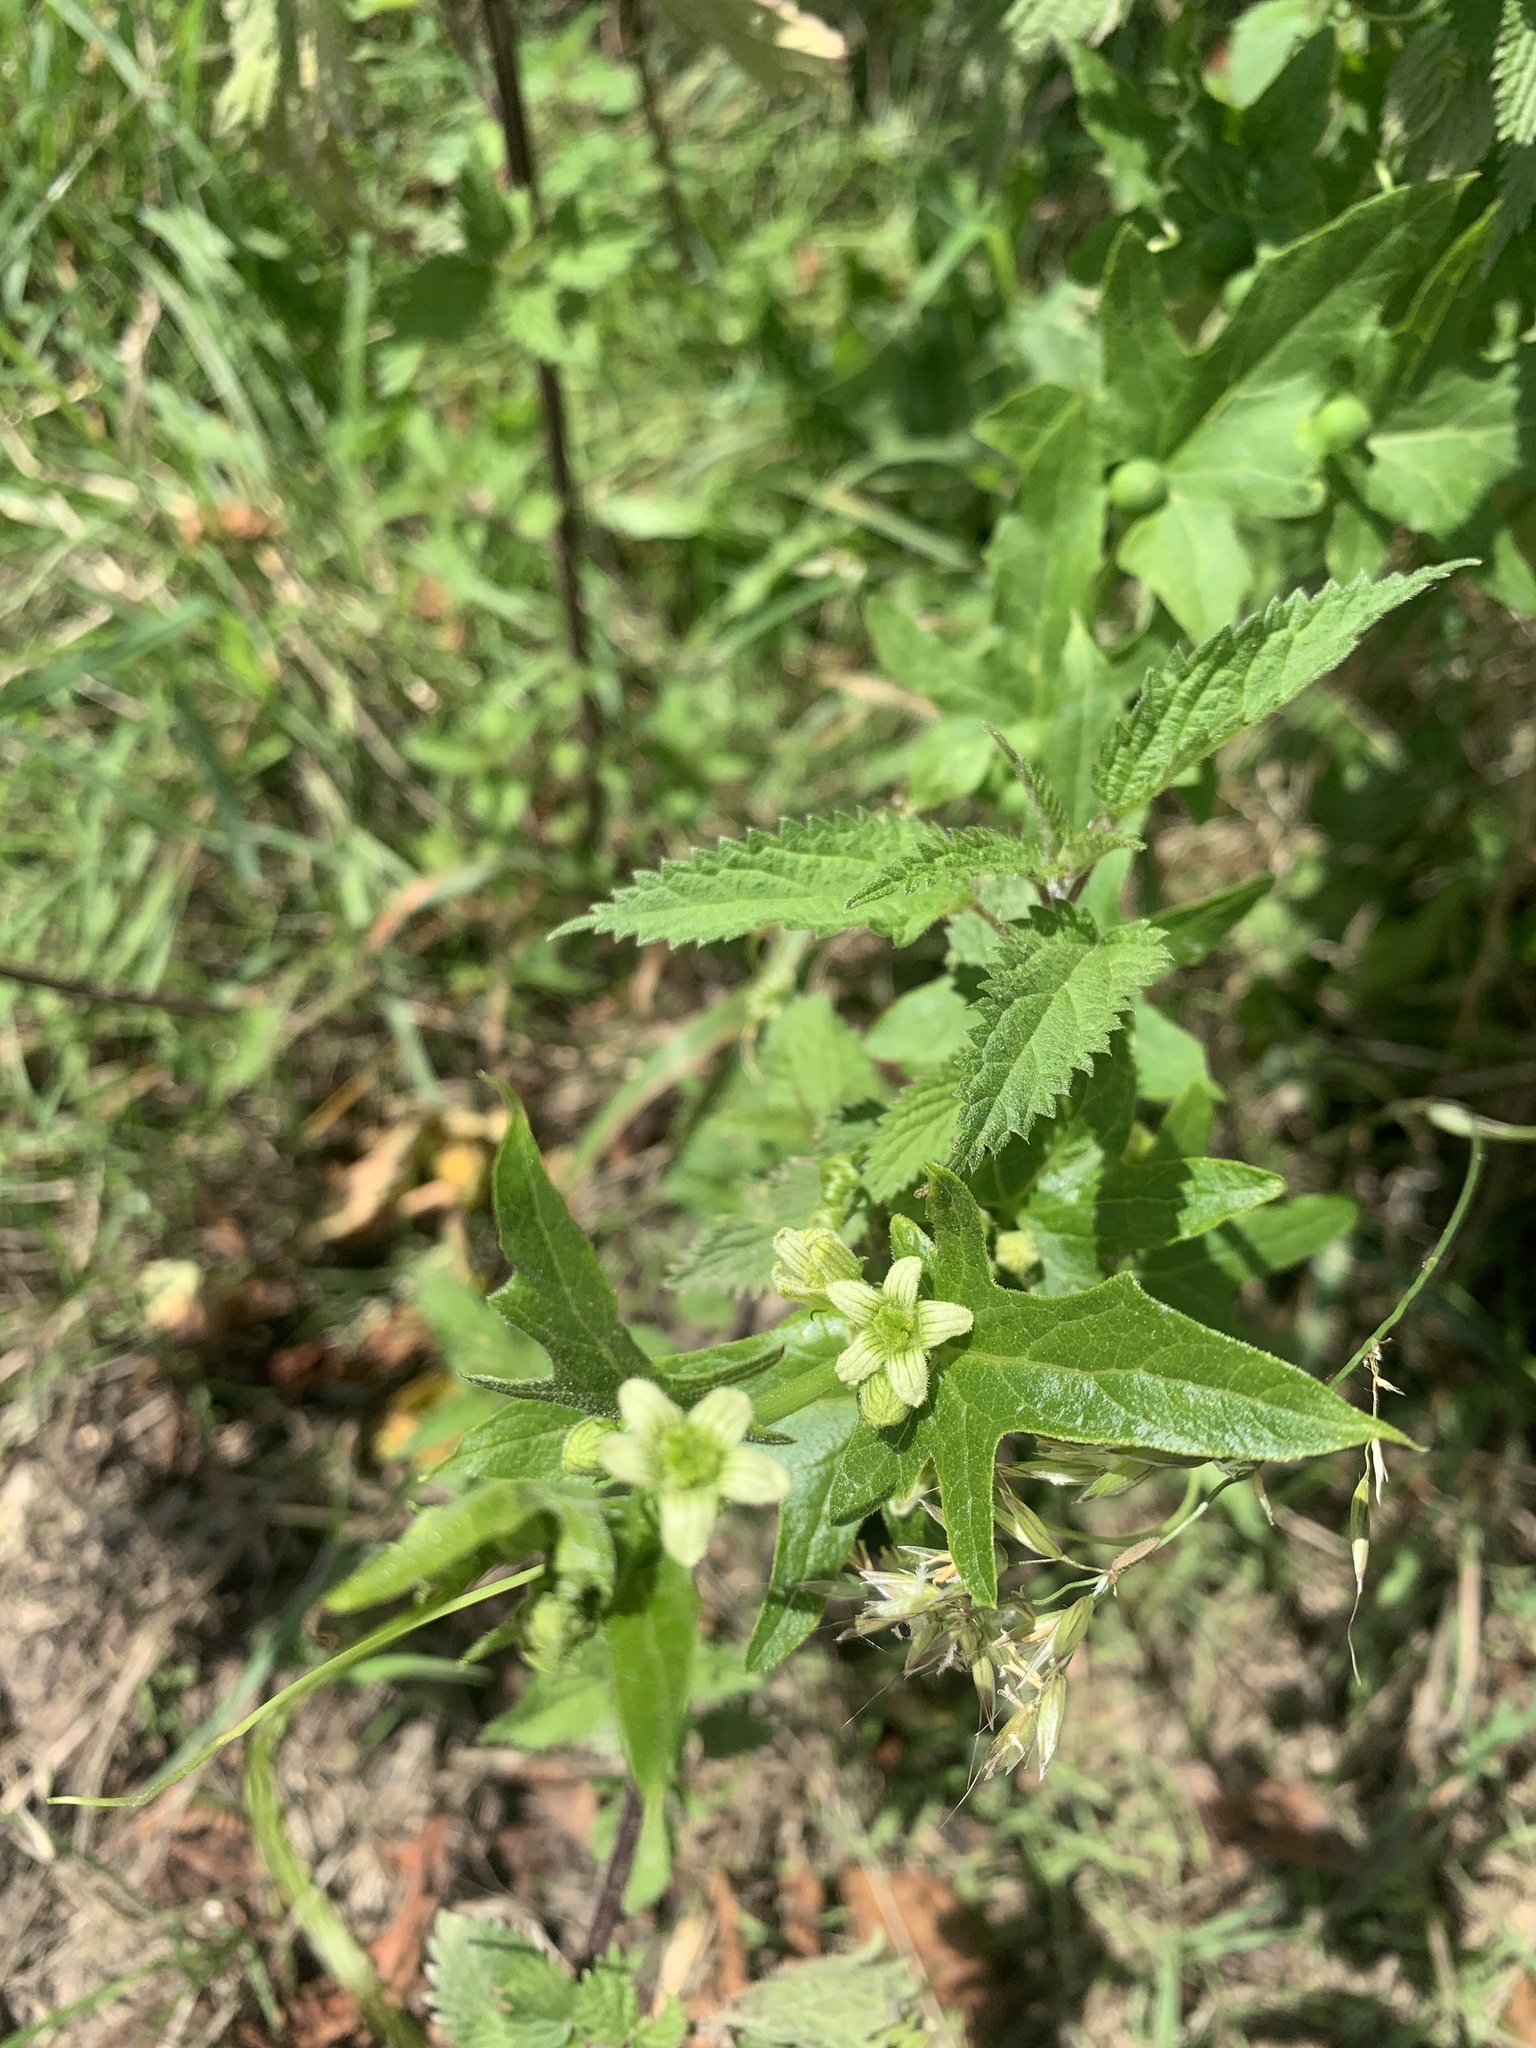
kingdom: Plantae
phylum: Tracheophyta
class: Magnoliopsida
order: Cucurbitales
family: Cucurbitaceae
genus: Bryonia
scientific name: Bryonia cretica
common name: Cretan bryony
